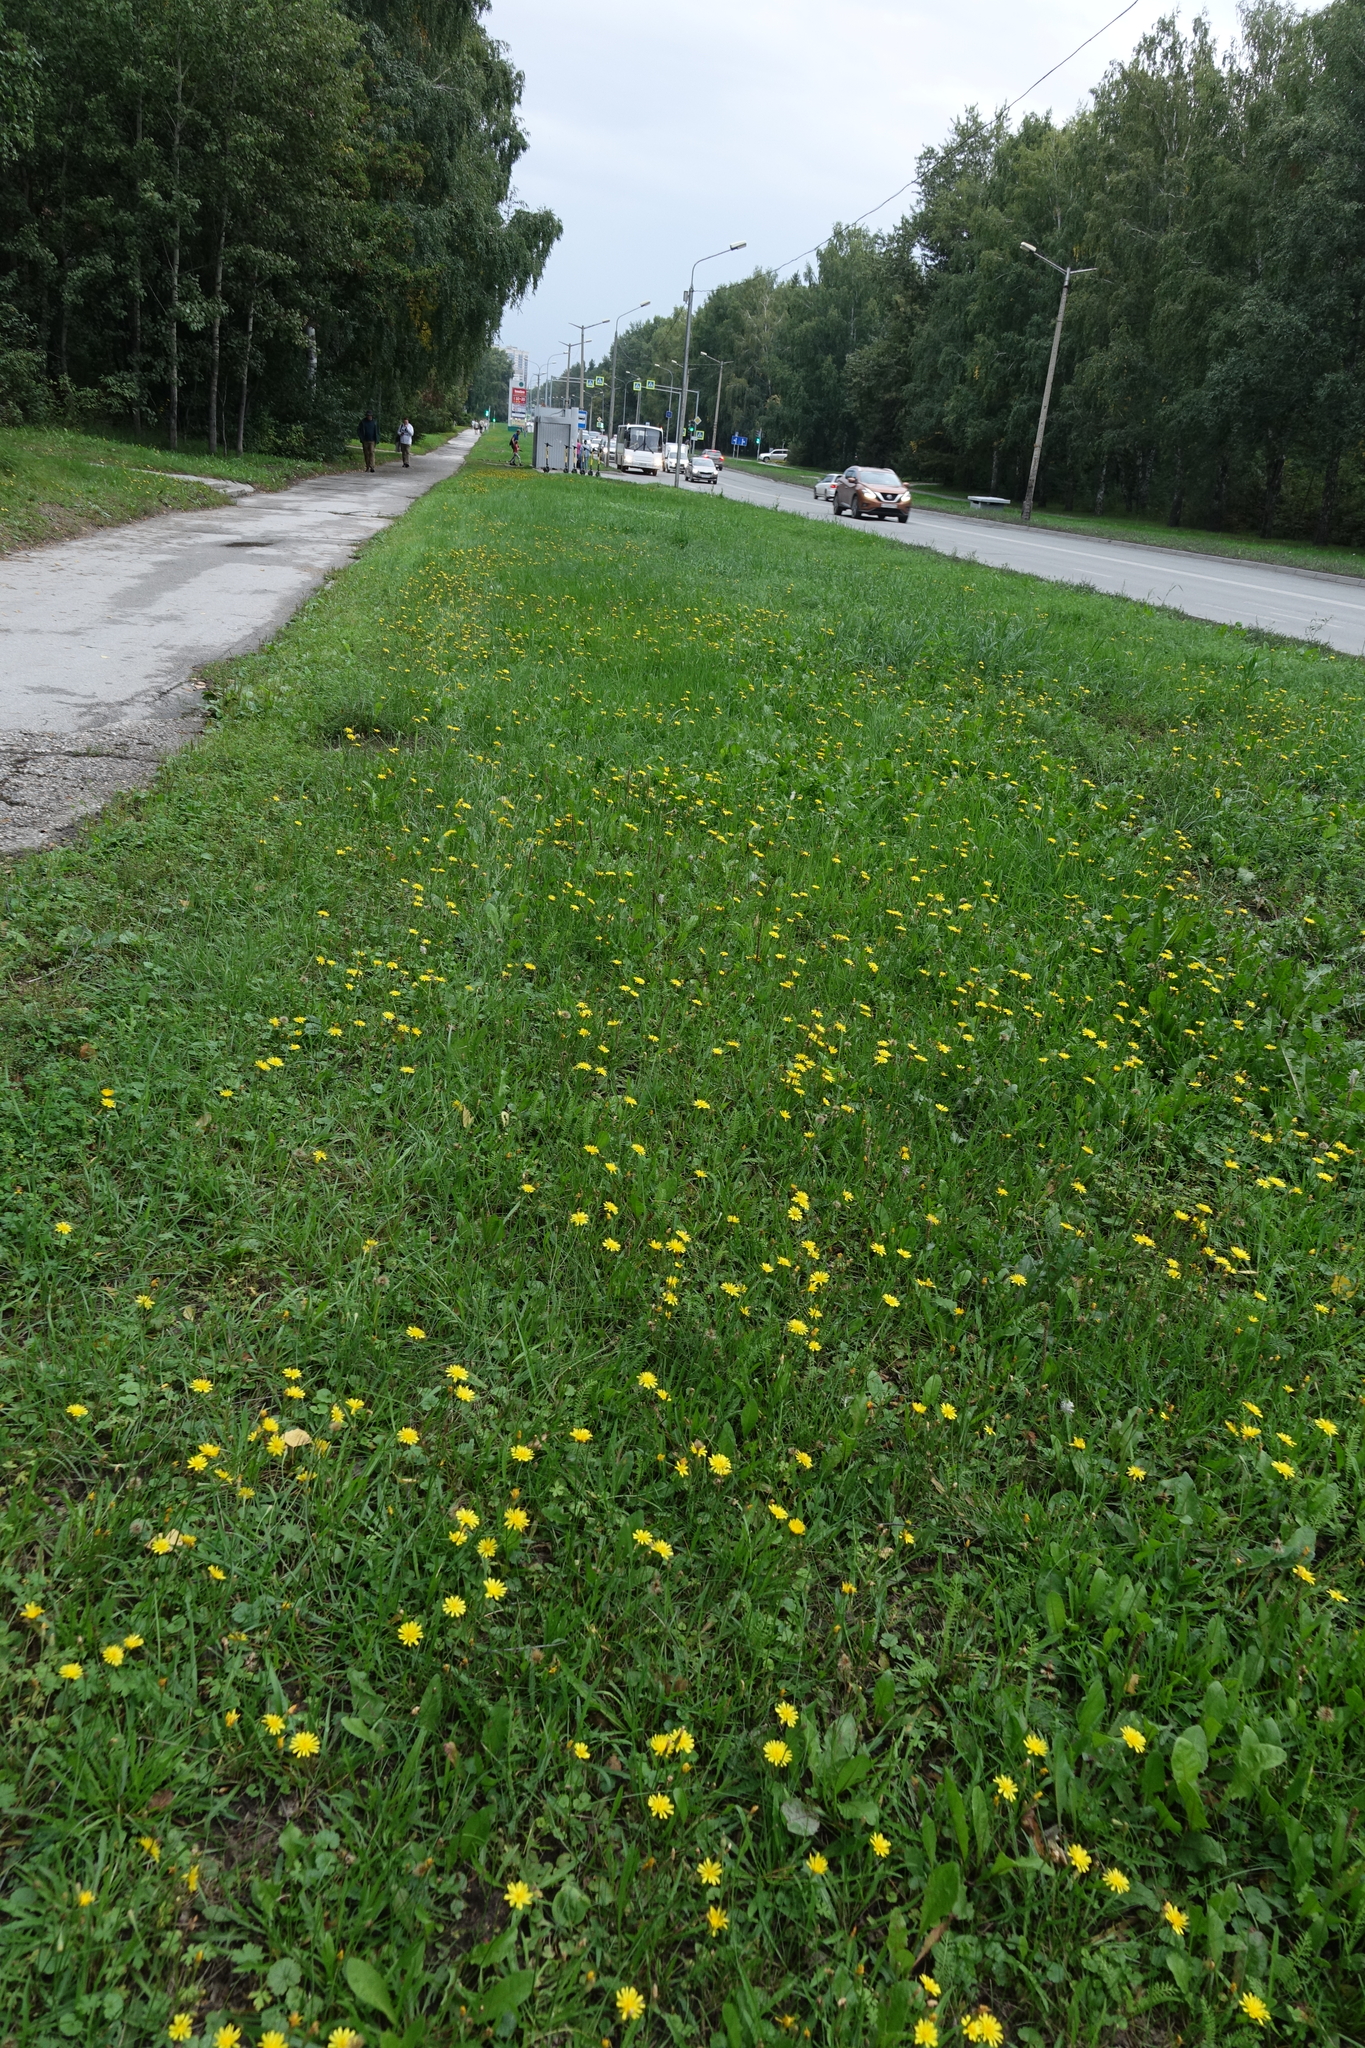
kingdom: Plantae
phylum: Tracheophyta
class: Magnoliopsida
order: Asterales
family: Asteraceae
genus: Scorzoneroides
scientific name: Scorzoneroides autumnalis
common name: Autumn hawkbit
